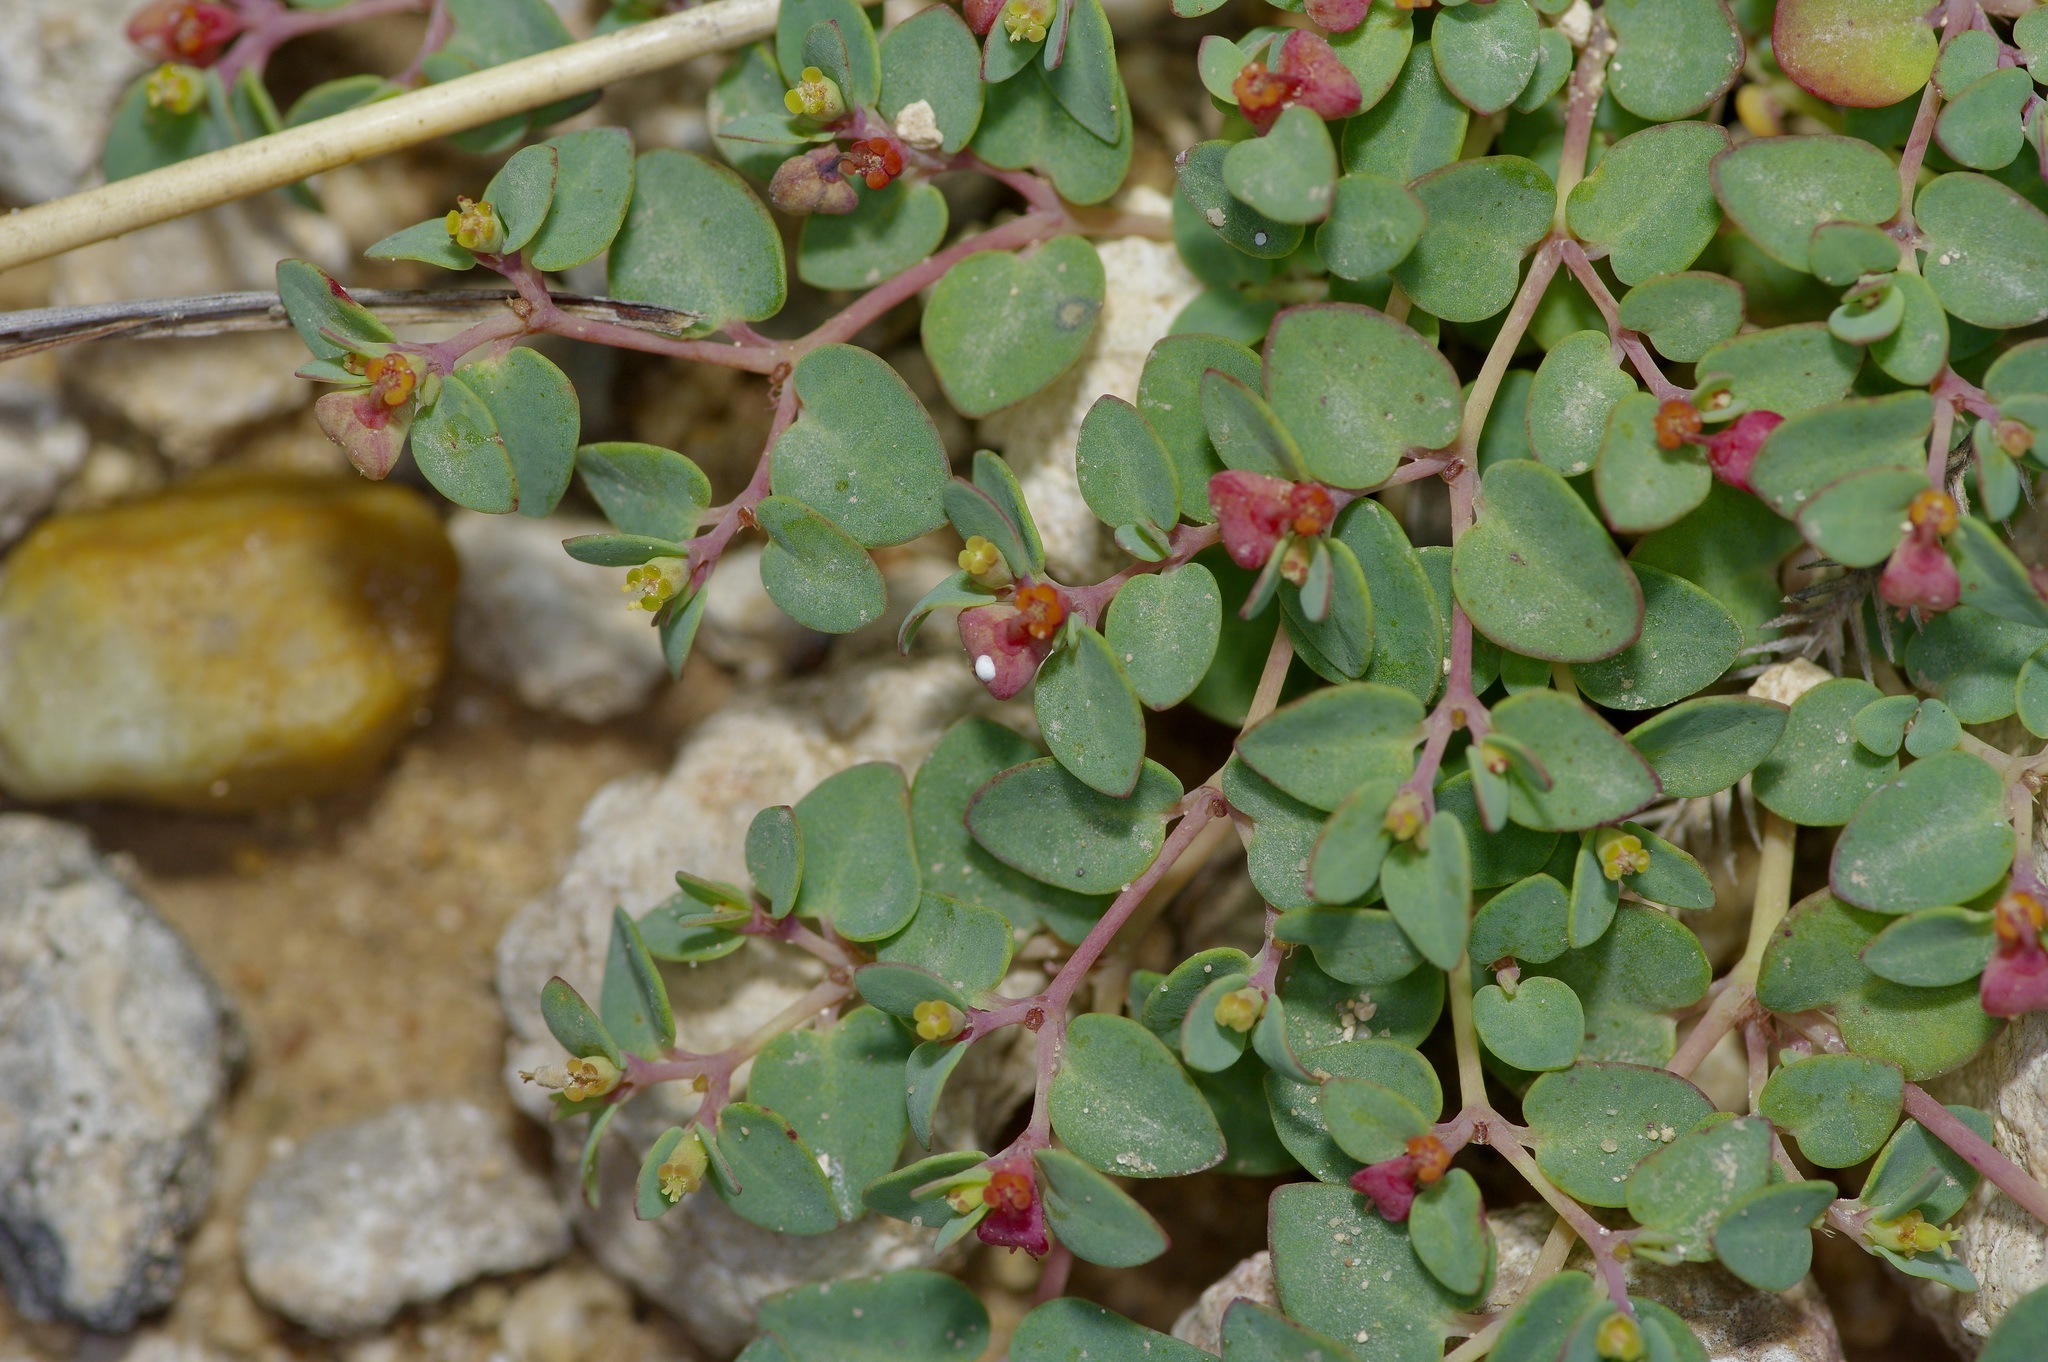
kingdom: Plantae
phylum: Tracheophyta
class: Magnoliopsida
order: Malpighiales
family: Euphorbiaceae
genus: Euphorbia
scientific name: Euphorbia fendleri
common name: Fendler's euphorbia
